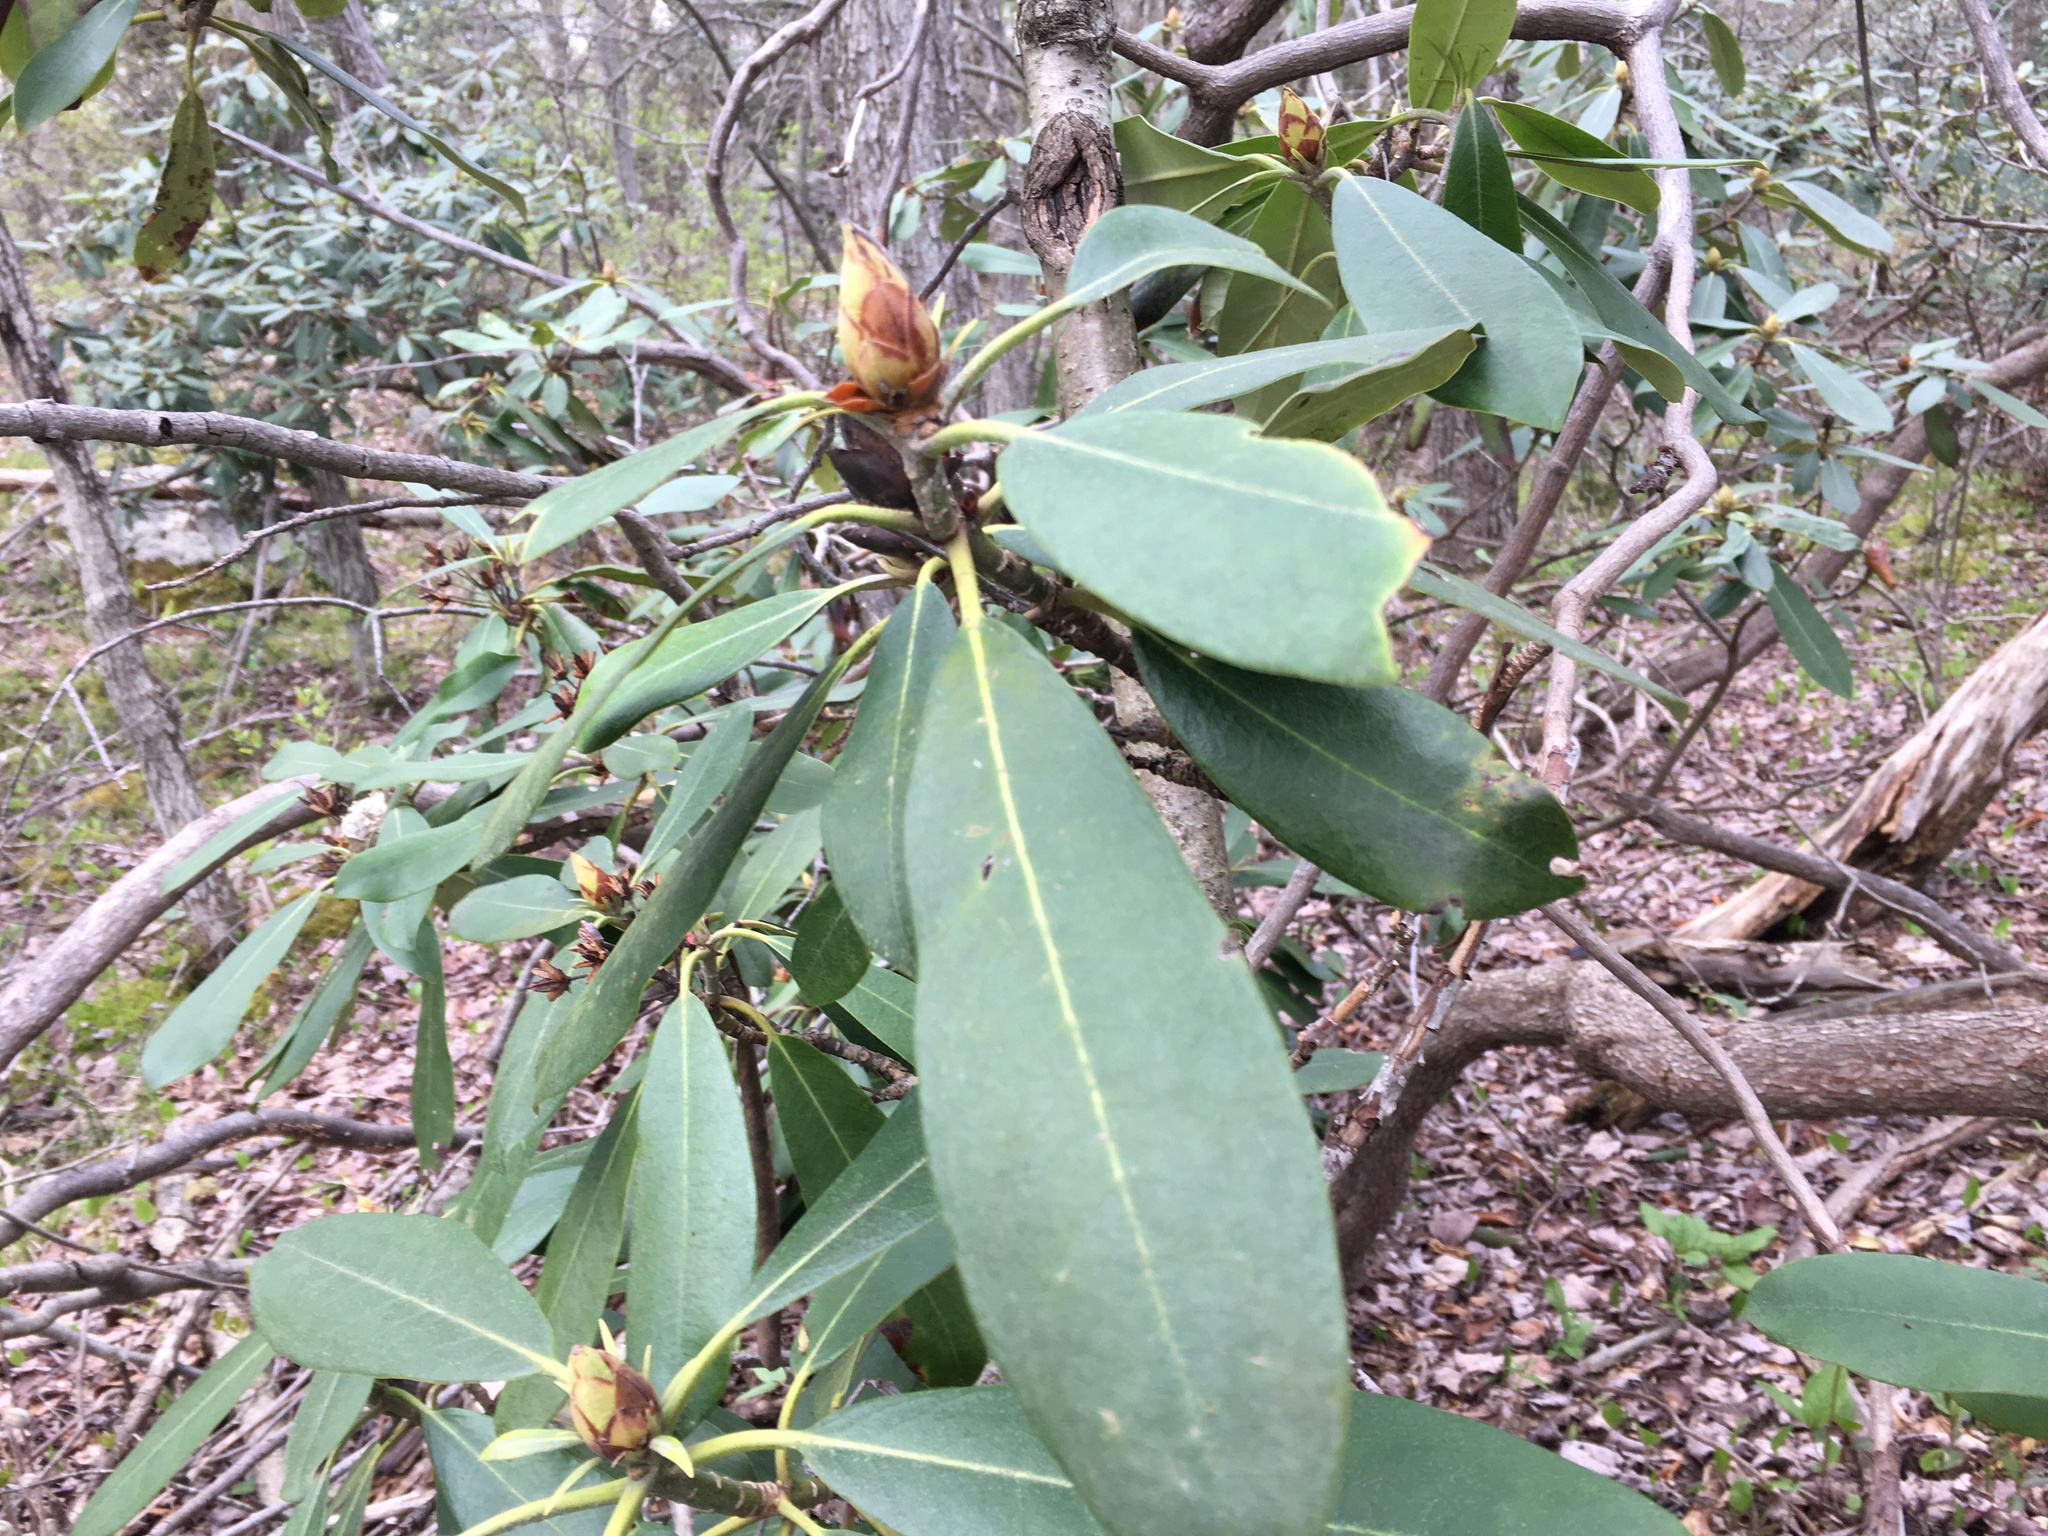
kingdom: Plantae
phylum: Tracheophyta
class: Magnoliopsida
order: Ericales
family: Ericaceae
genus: Rhododendron
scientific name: Rhododendron maximum
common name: Great rhododendron
